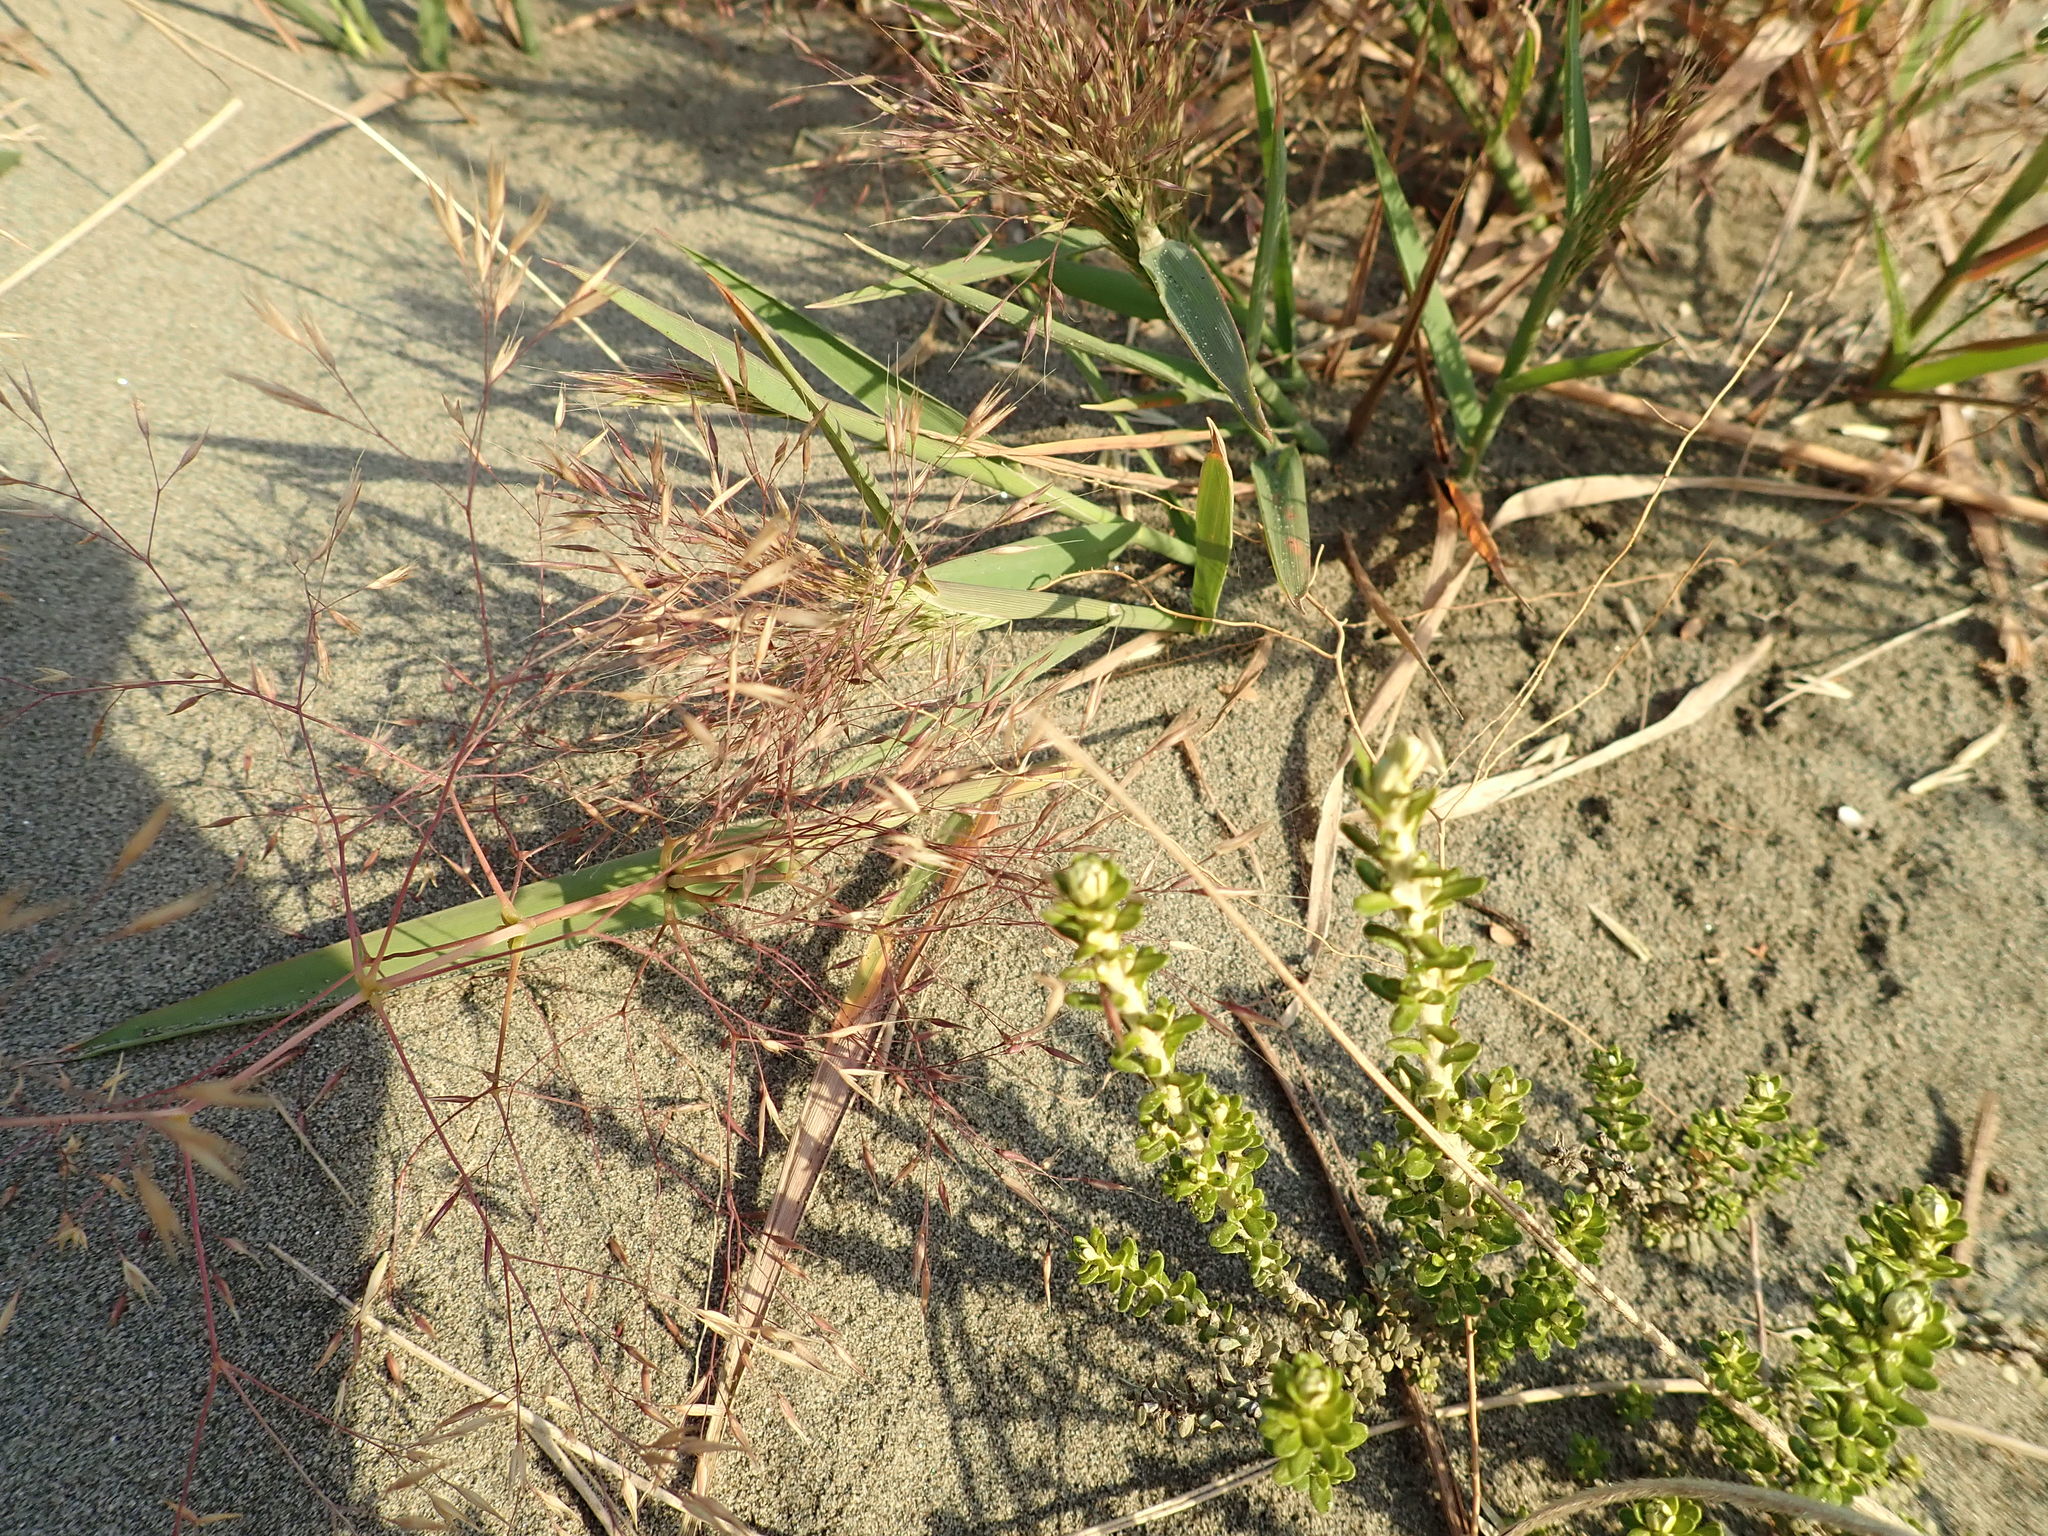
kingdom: Plantae
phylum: Tracheophyta
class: Liliopsida
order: Poales
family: Poaceae
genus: Lachnagrostis
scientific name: Lachnagrostis billardierei
